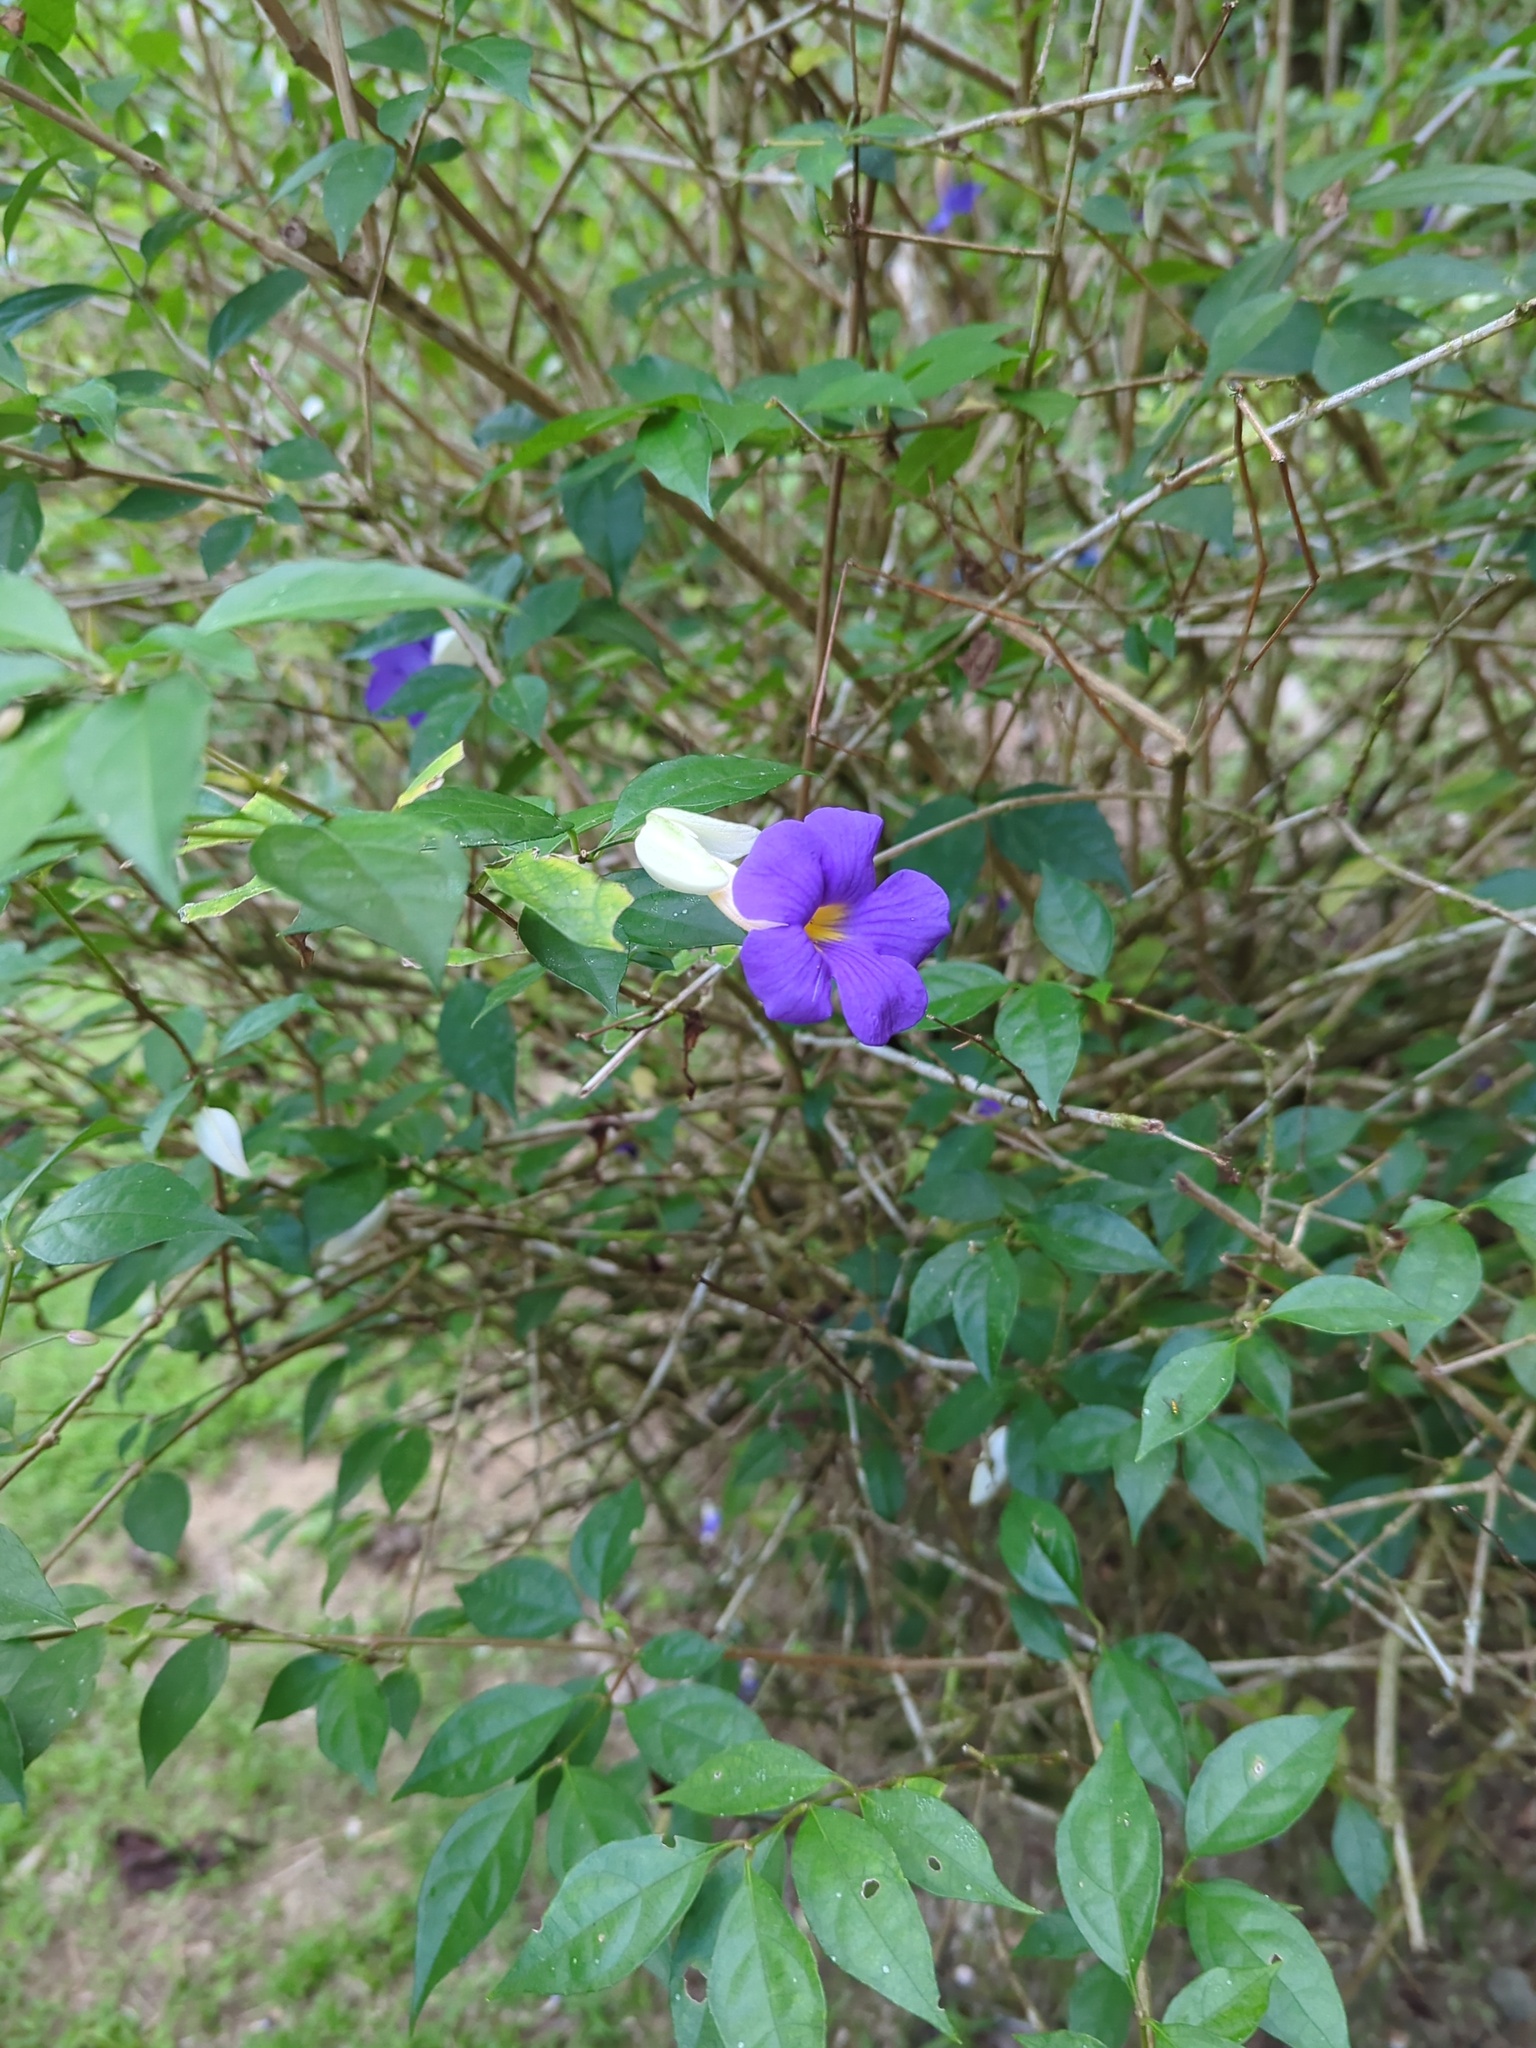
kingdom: Plantae
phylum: Tracheophyta
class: Magnoliopsida
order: Lamiales
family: Acanthaceae
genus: Thunbergia
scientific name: Thunbergia erecta
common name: Bush clockvine
